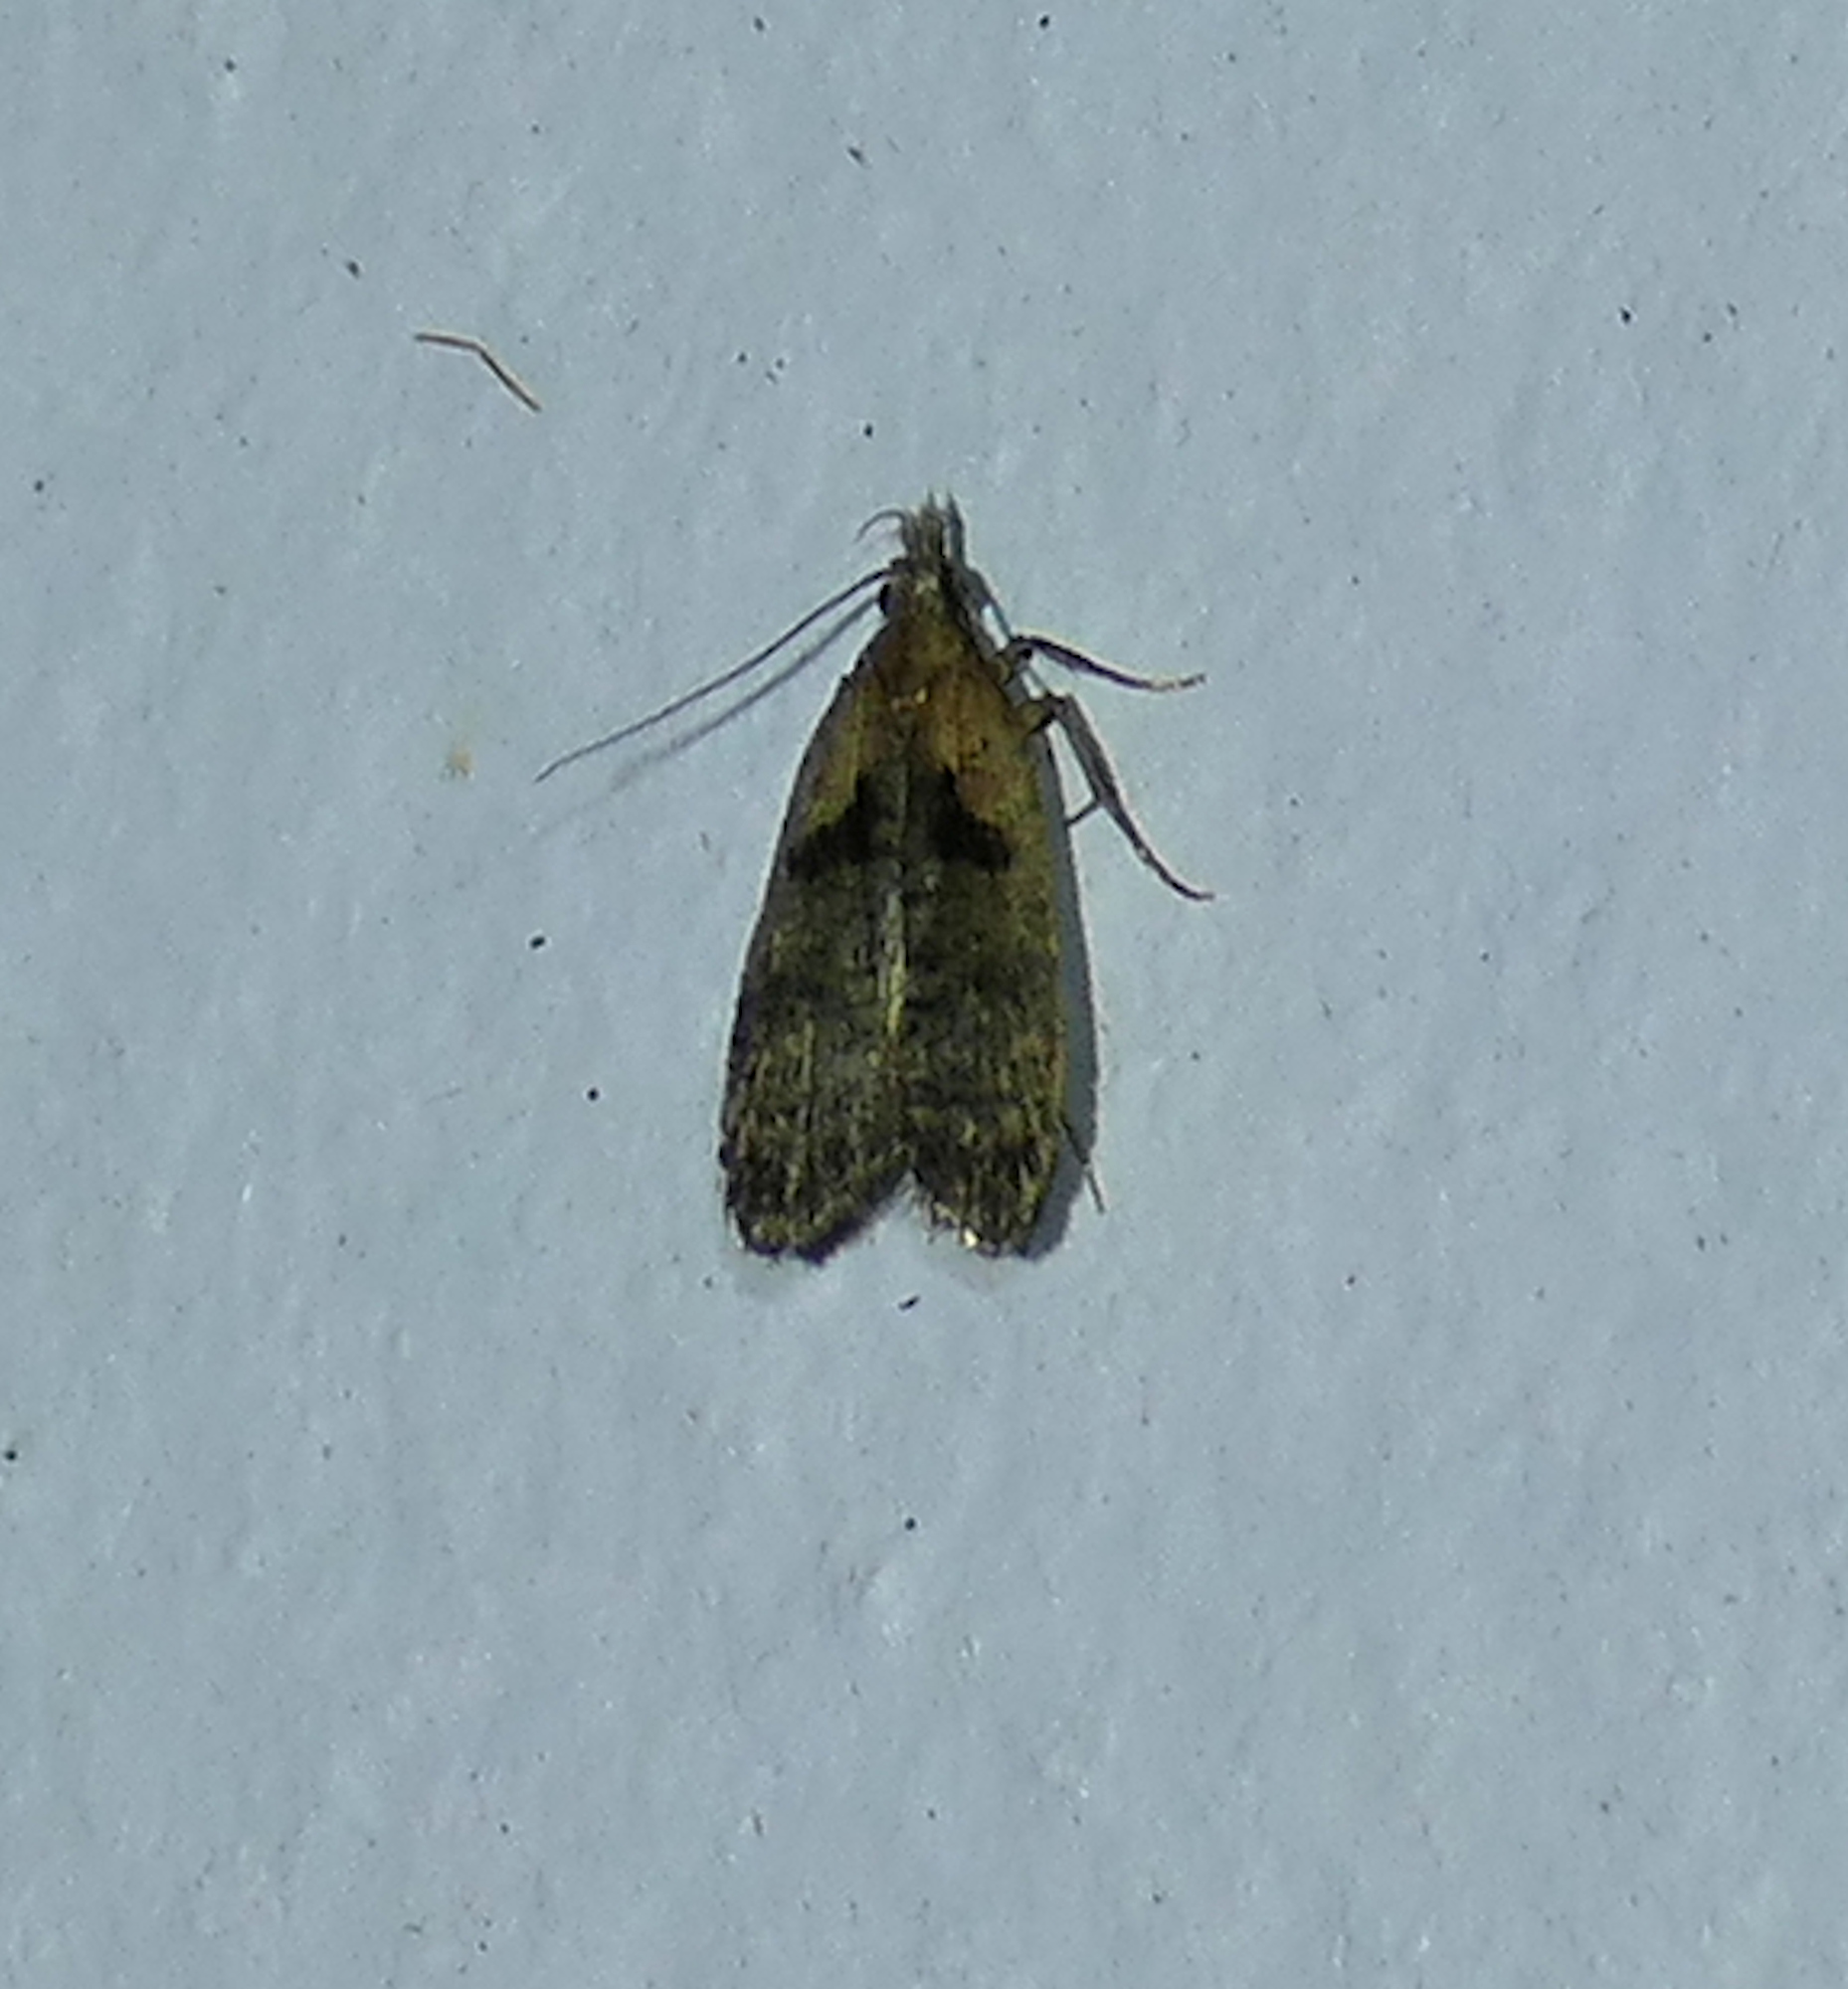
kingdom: Animalia
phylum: Arthropoda
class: Insecta
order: Lepidoptera
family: Gelechiidae
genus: Dichomeris
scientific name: Dichomeris gleba
